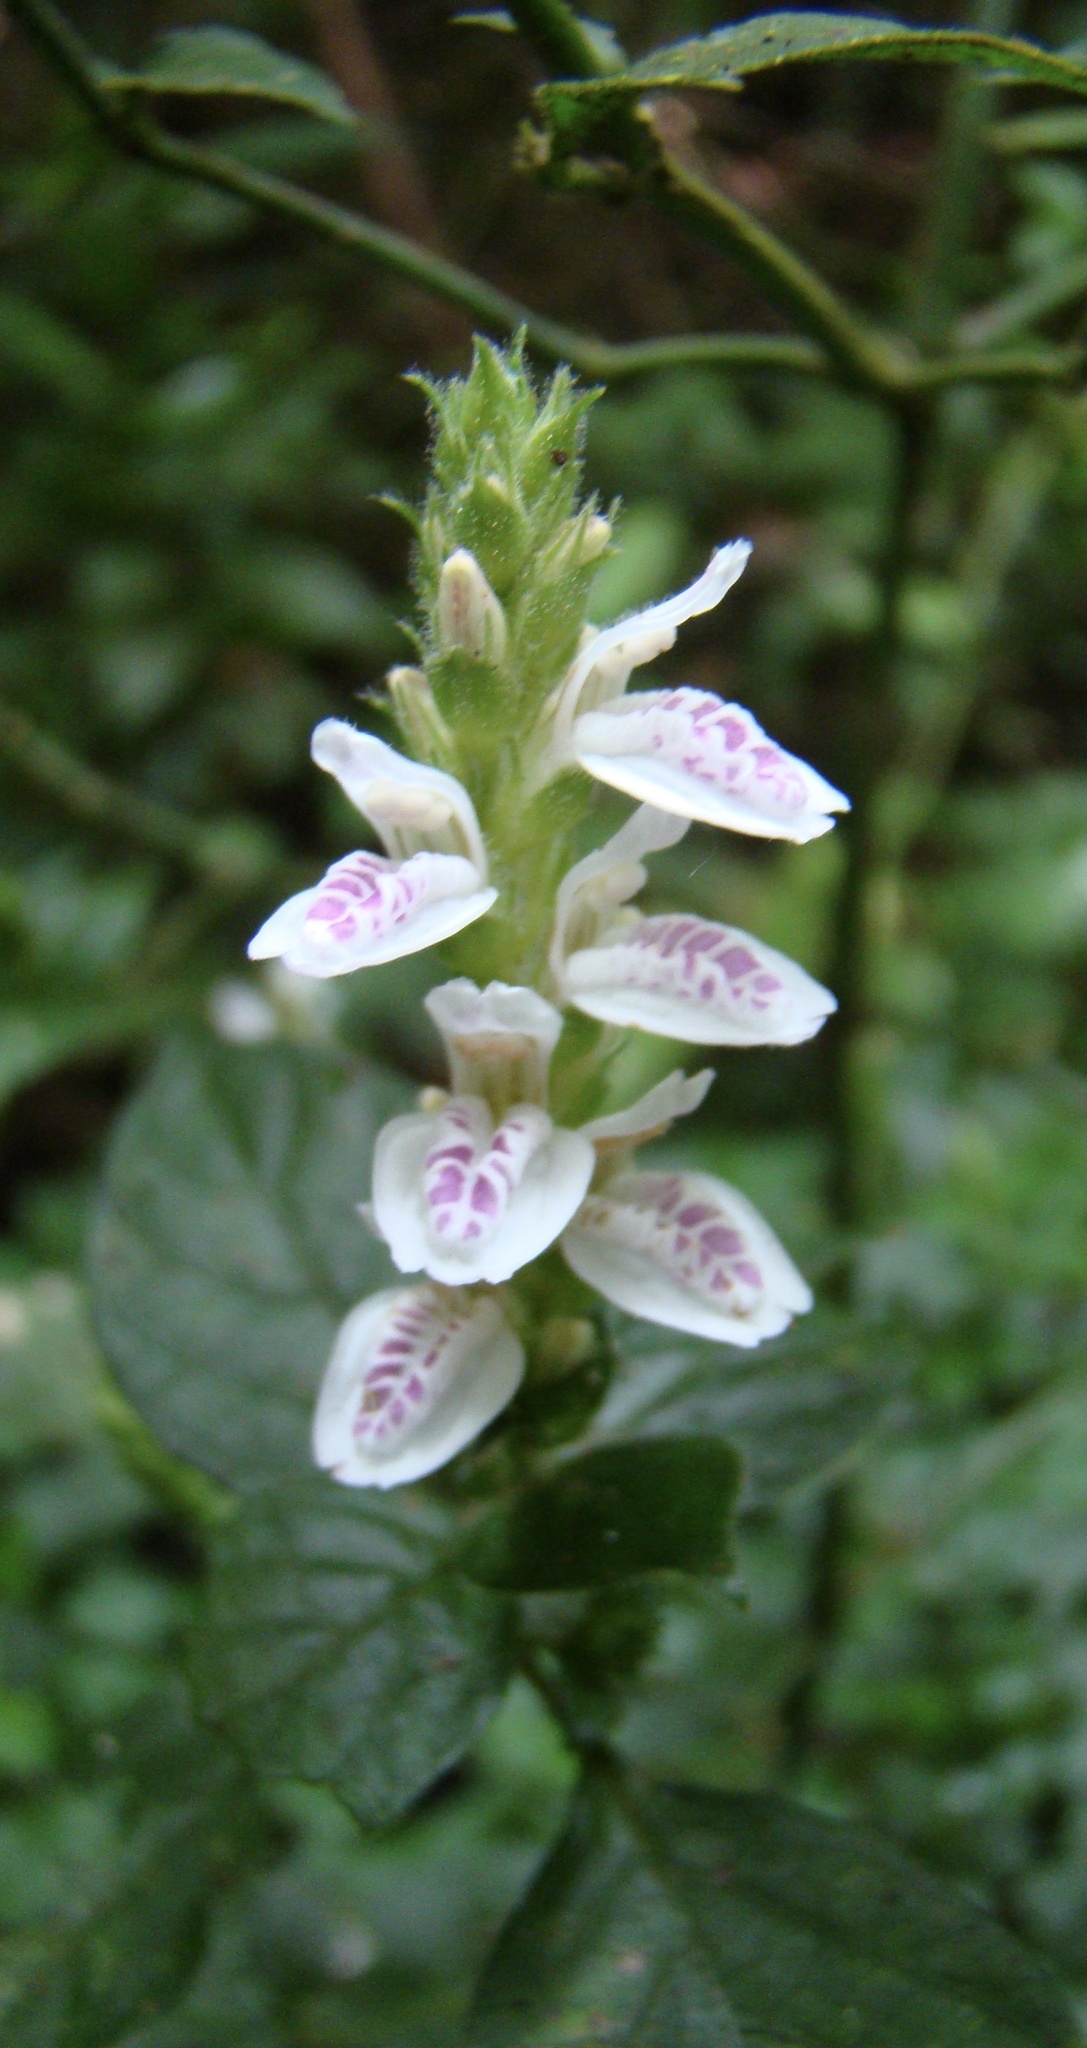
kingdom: Plantae
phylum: Tracheophyta
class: Magnoliopsida
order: Lamiales
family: Acanthaceae
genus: Isoglossa
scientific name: Isoglossa substrobilina
